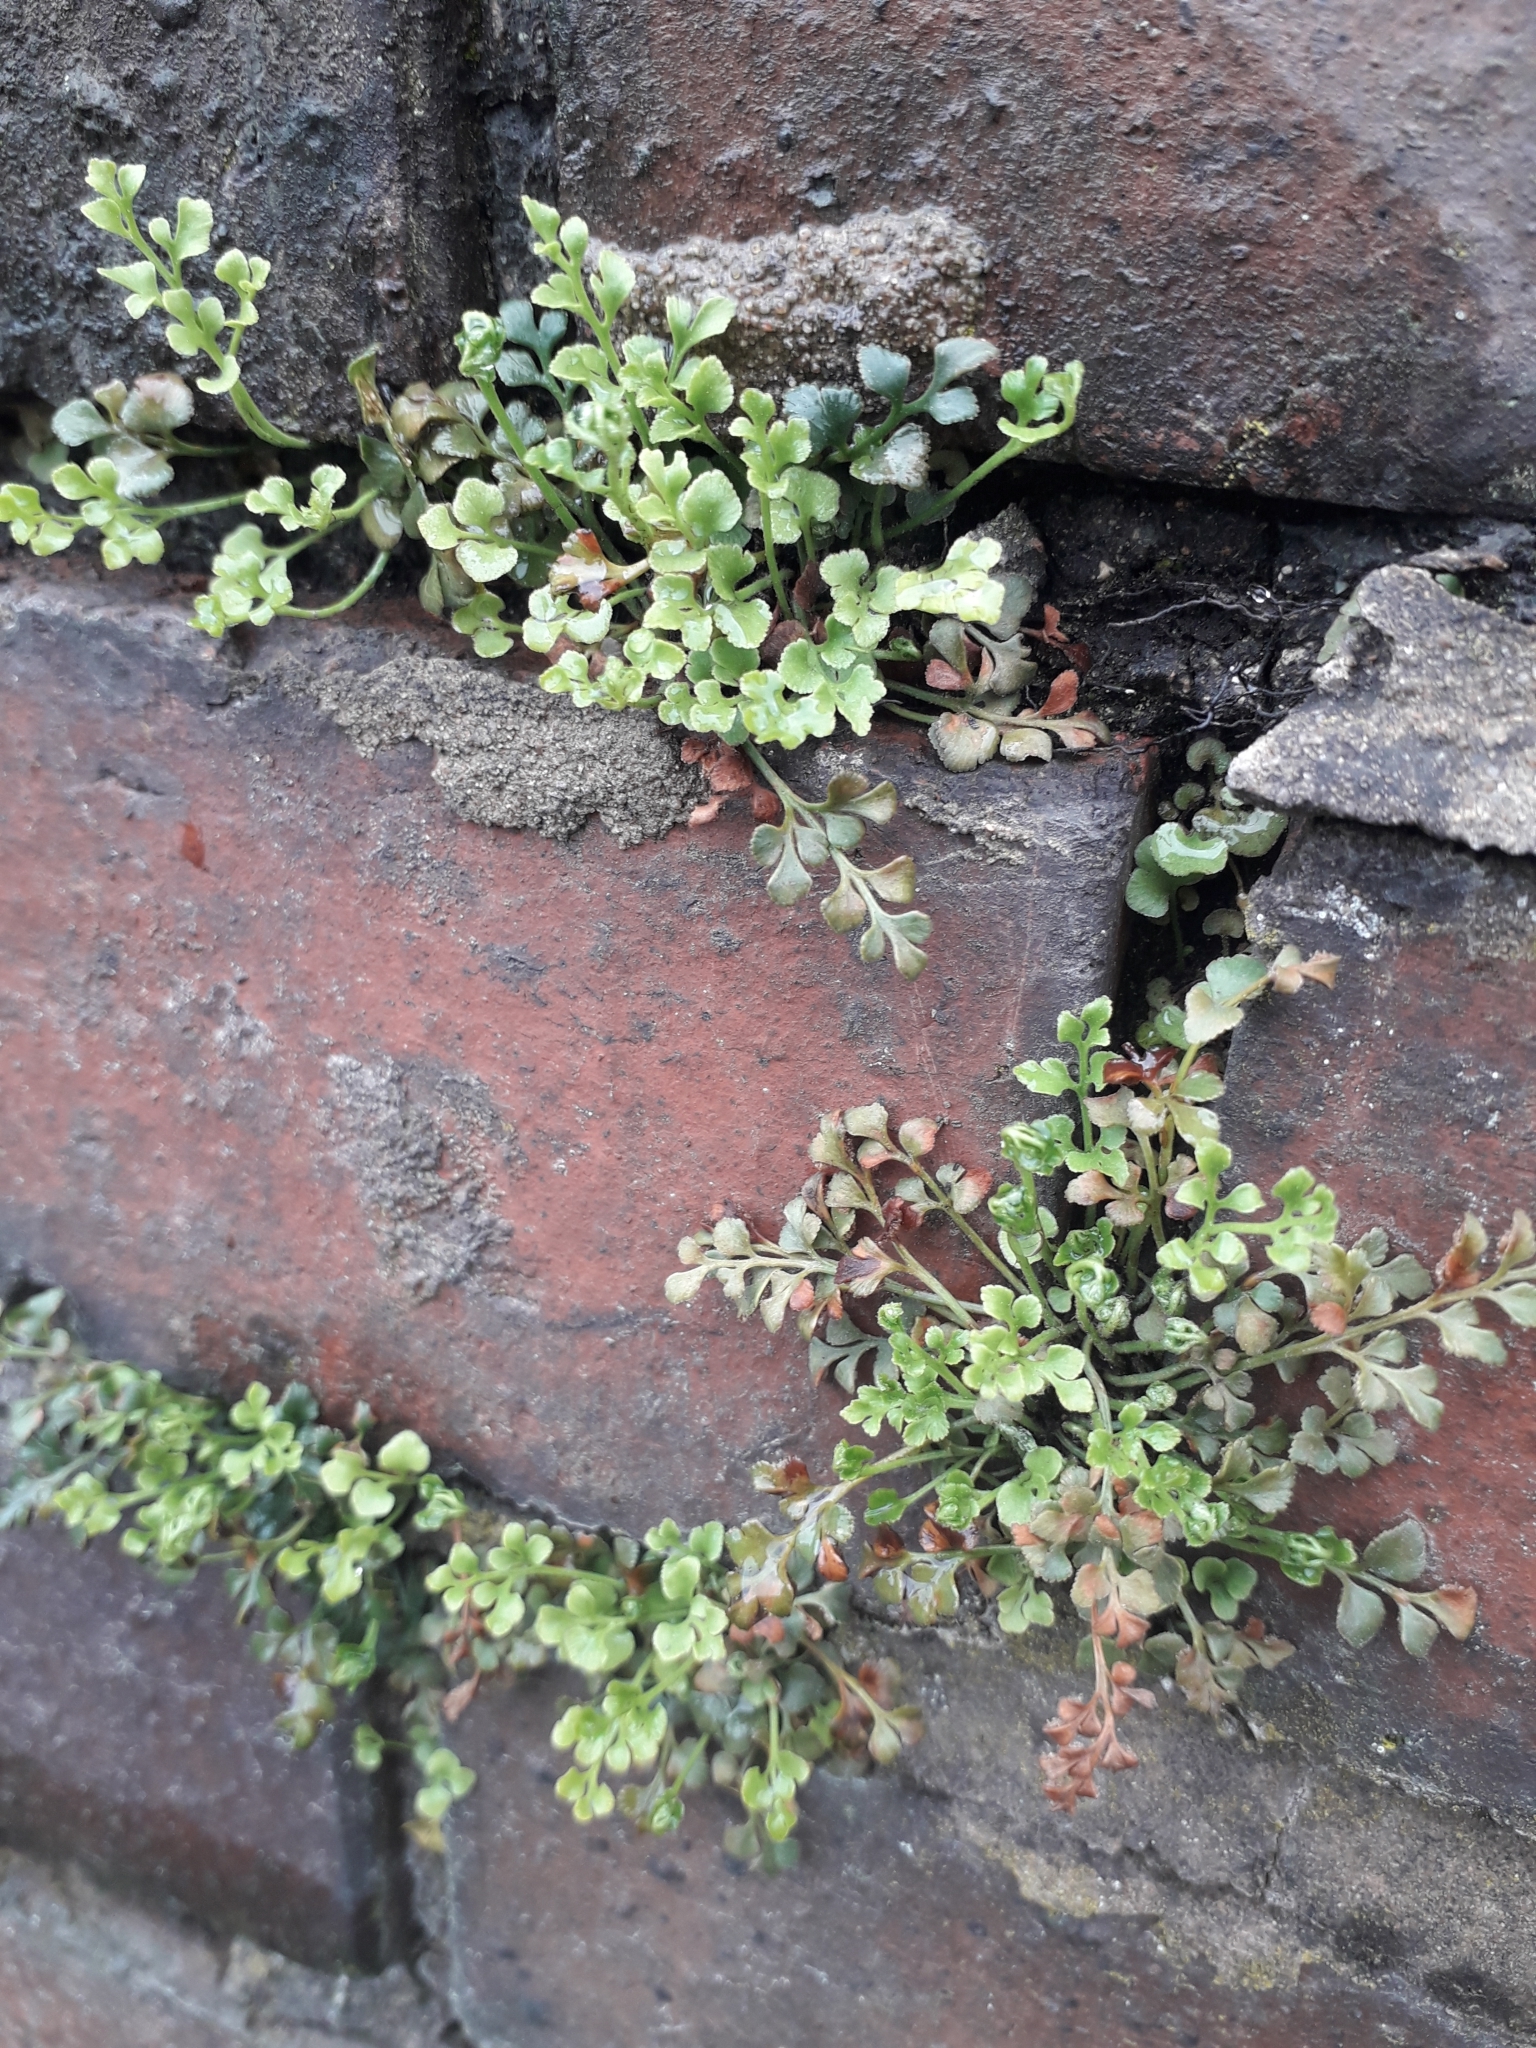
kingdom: Plantae
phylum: Tracheophyta
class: Polypodiopsida
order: Polypodiales
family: Aspleniaceae
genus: Asplenium
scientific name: Asplenium ruta-muraria
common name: Wall-rue
